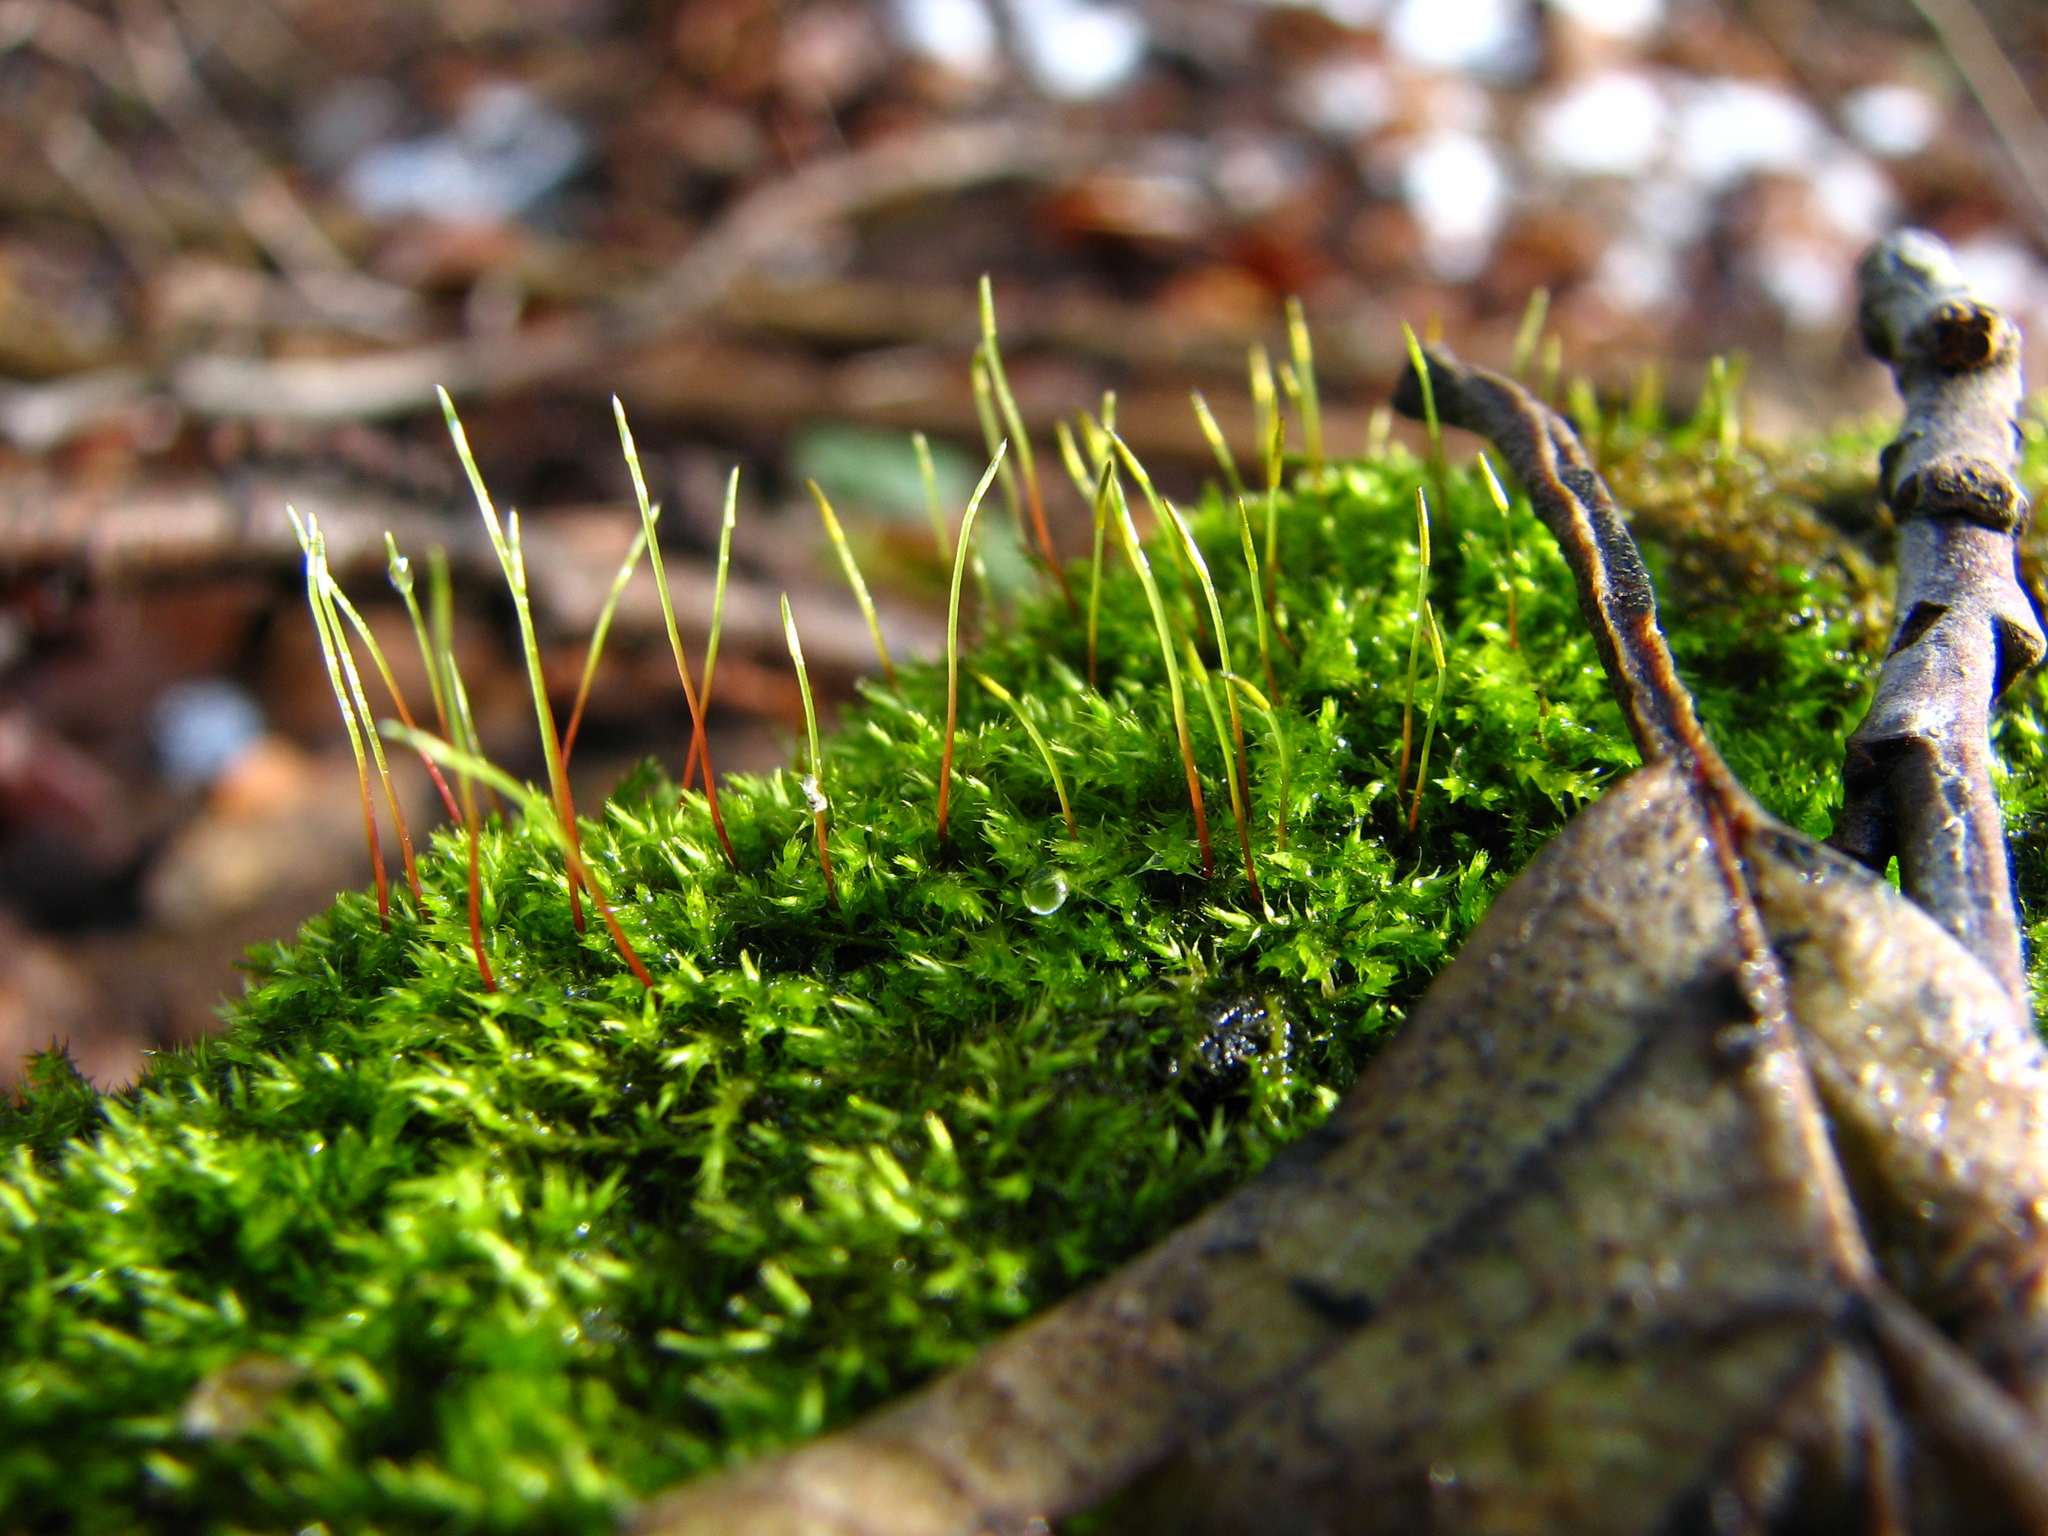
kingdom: Plantae
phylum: Bryophyta
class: Bryopsida
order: Hypnales
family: Amblystegiaceae
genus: Amblystegium
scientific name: Amblystegium serpens
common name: Jurkatzka's feather moss
